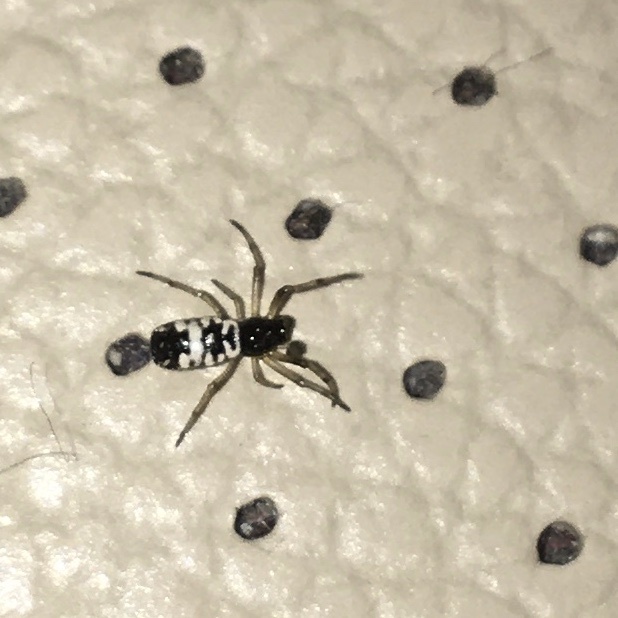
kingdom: Animalia
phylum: Arthropoda
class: Arachnida
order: Araneae
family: Araneidae
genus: Micrathena
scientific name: Micrathena mitrata
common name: Orb weavers
